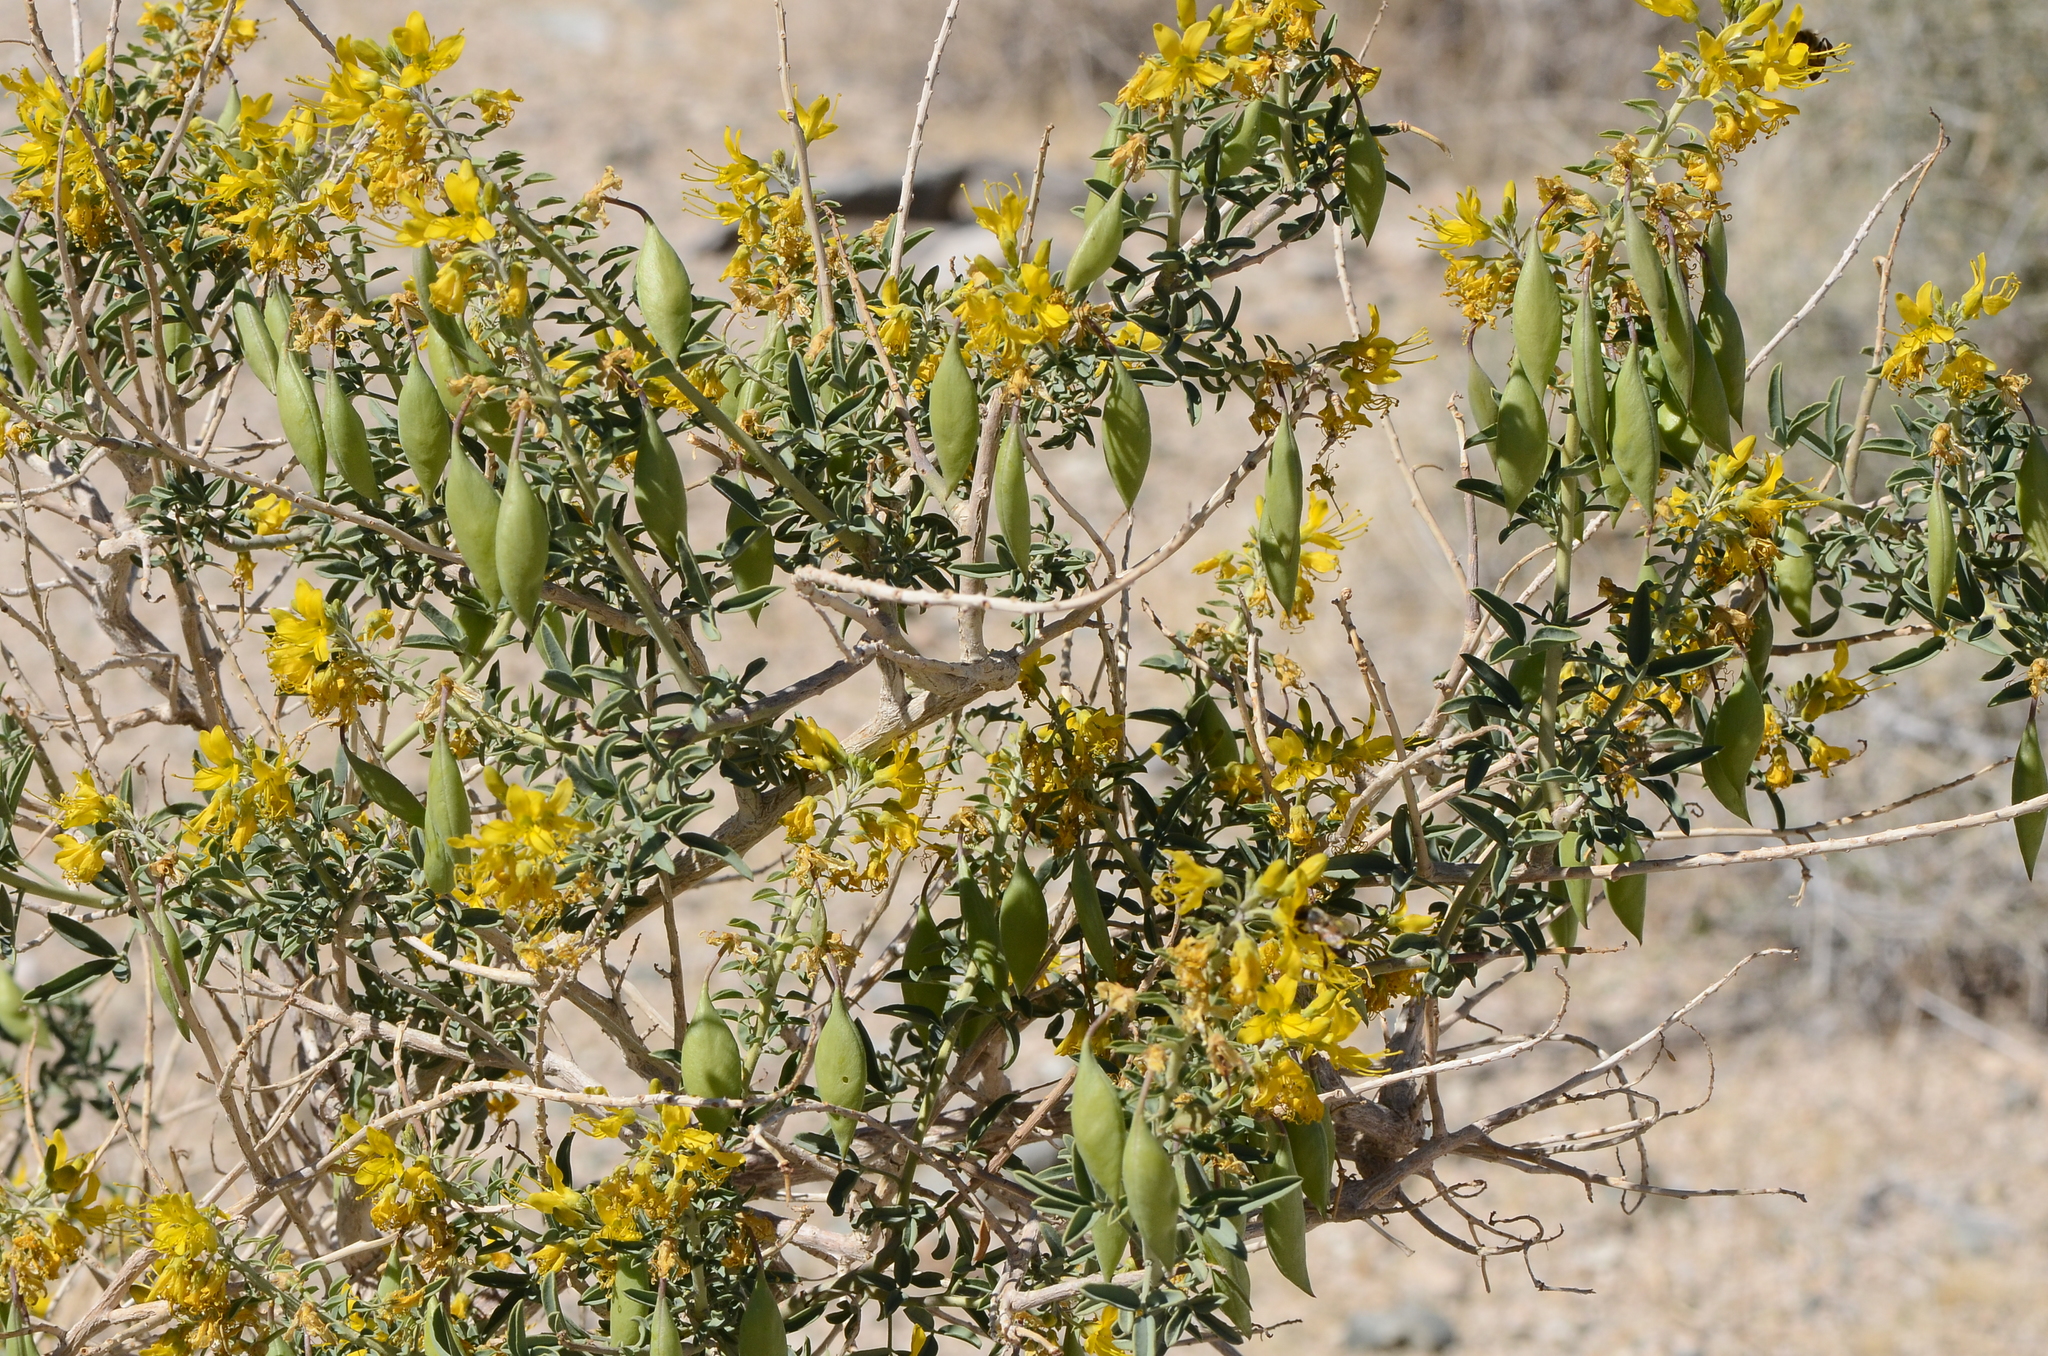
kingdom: Plantae
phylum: Tracheophyta
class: Magnoliopsida
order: Brassicales
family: Cleomaceae
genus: Cleomella
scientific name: Cleomella arborea
